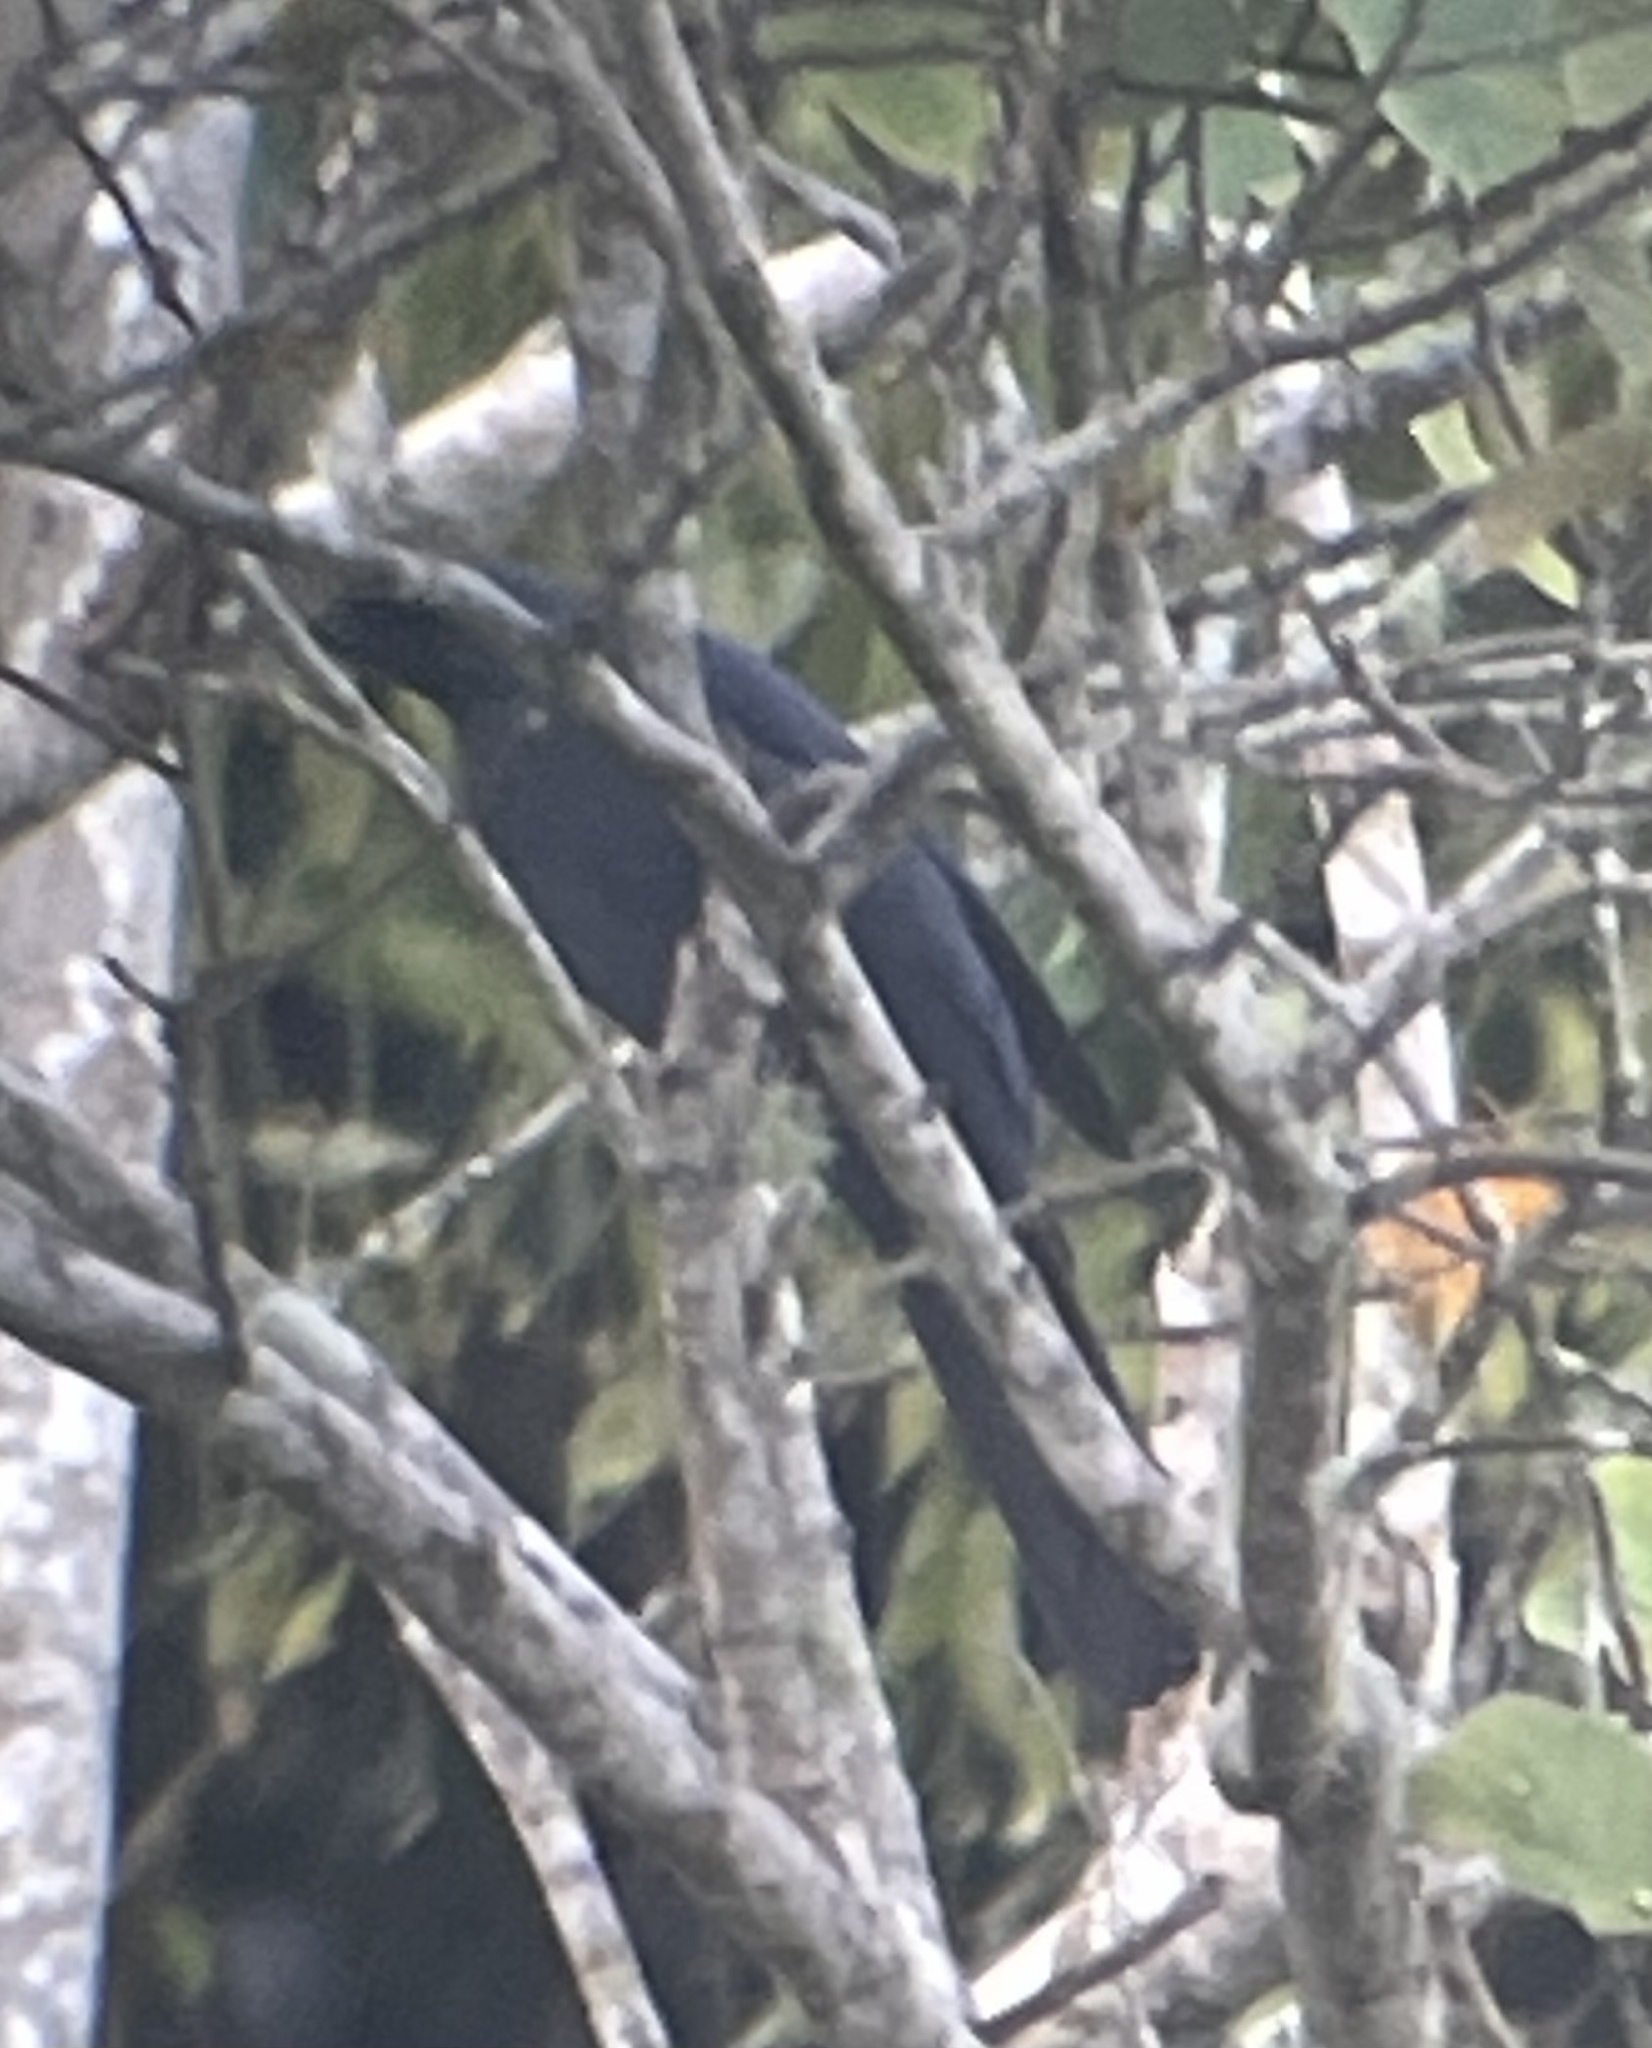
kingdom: Animalia
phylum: Chordata
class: Aves
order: Passeriformes
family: Campephagidae
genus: Coracina
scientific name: Coracina temminckii
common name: Cerulean cuckooshrike
